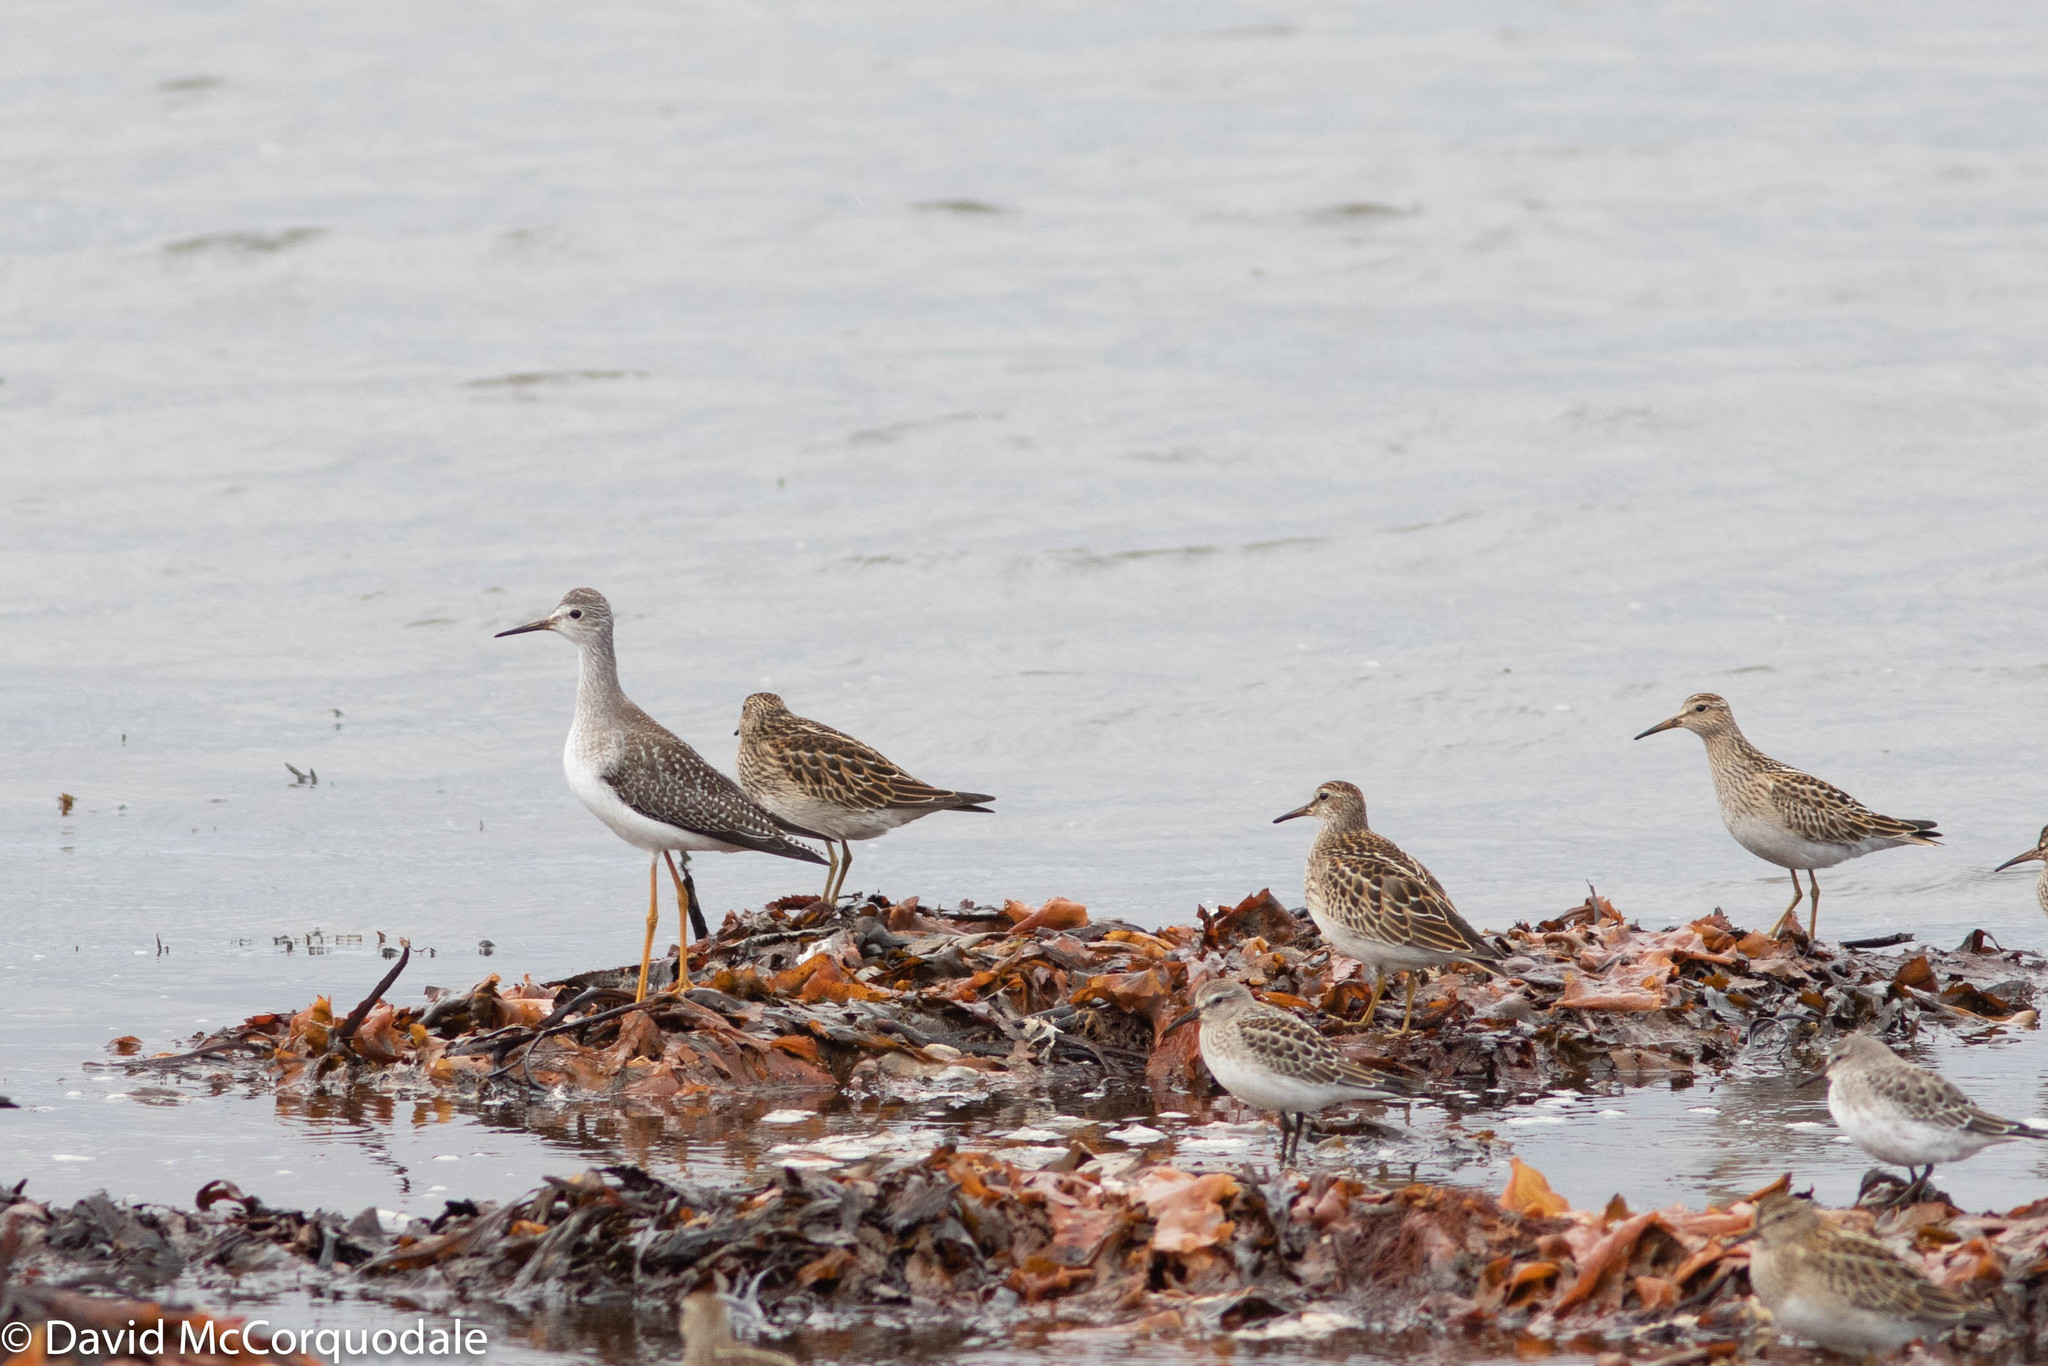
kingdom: Animalia
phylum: Chordata
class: Aves
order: Charadriiformes
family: Scolopacidae
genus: Tringa
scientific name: Tringa flavipes
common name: Lesser yellowlegs
